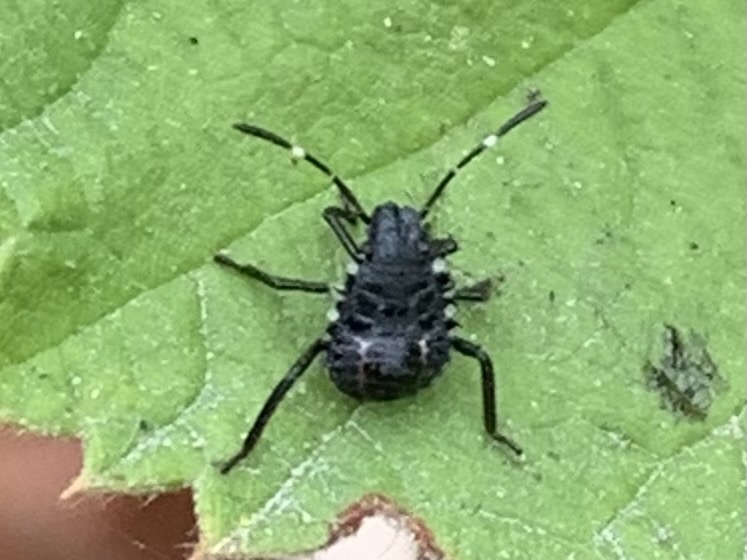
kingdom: Animalia
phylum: Arthropoda
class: Insecta
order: Hemiptera
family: Pentatomidae
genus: Halyomorpha
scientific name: Halyomorpha halys
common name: Brown marmorated stink bug
